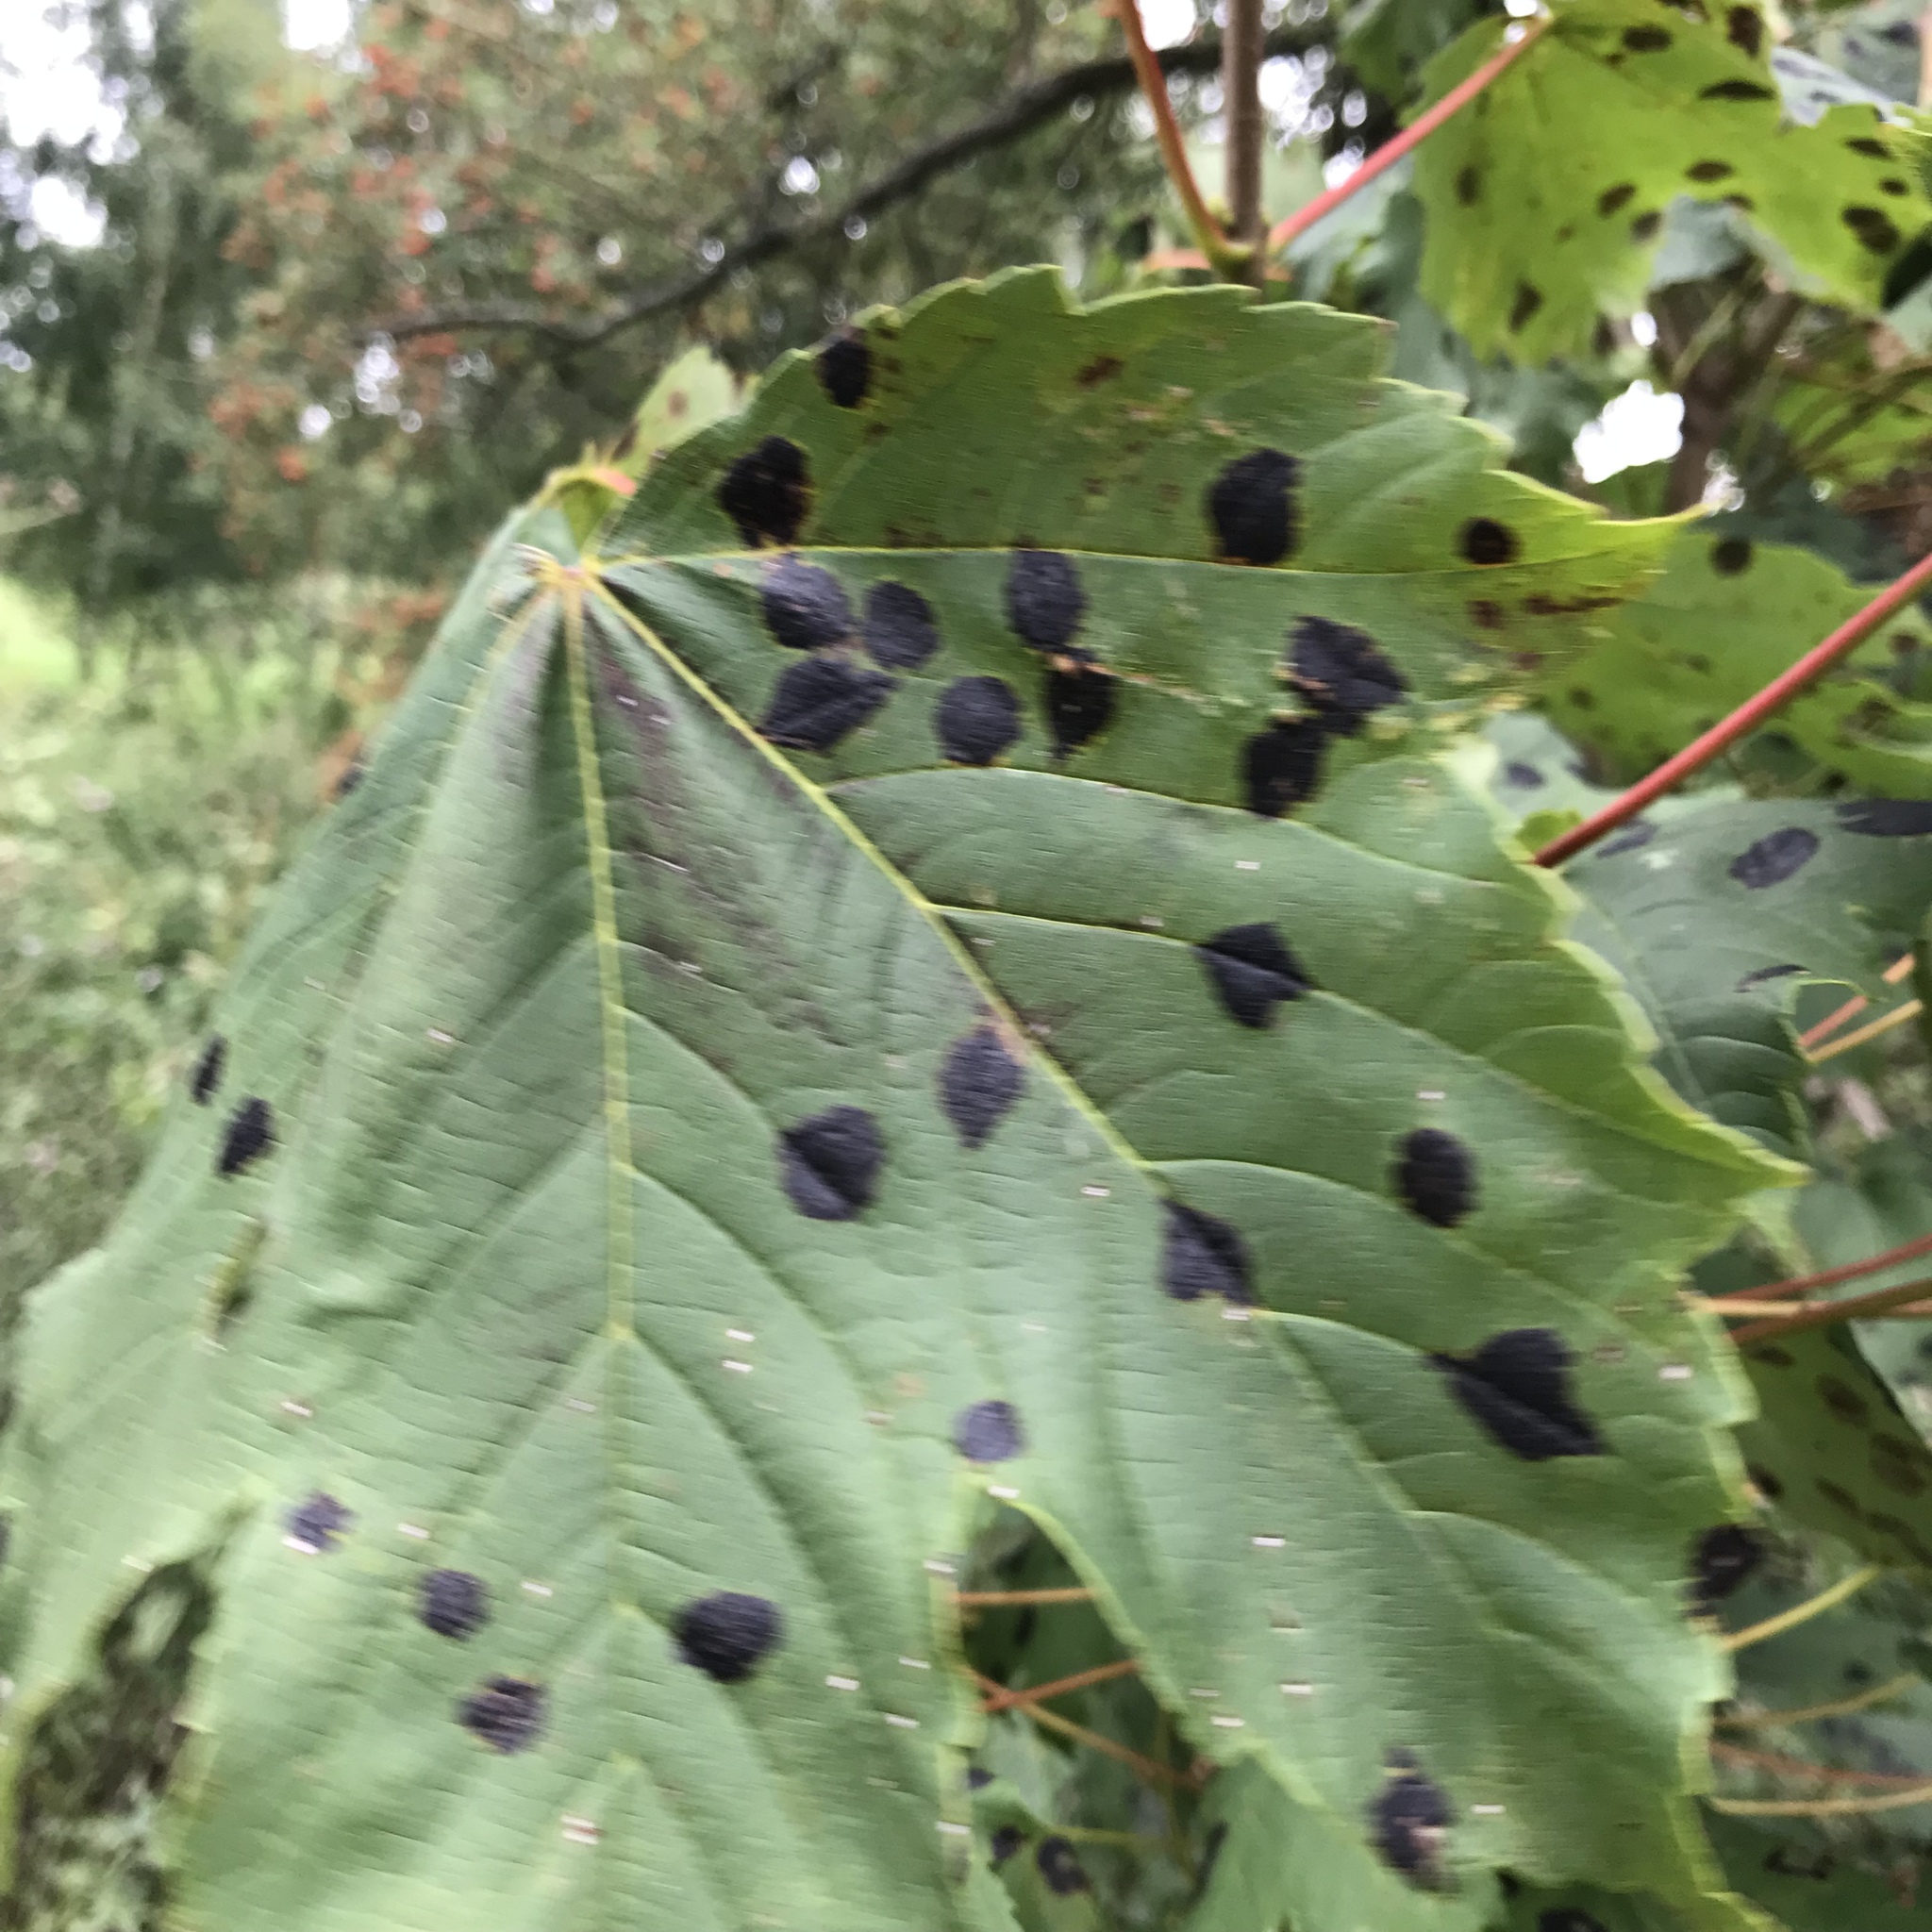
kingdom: Fungi
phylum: Ascomycota
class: Leotiomycetes
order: Rhytismatales
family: Rhytismataceae
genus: Rhytisma
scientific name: Rhytisma acerinum
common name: European tar spot
